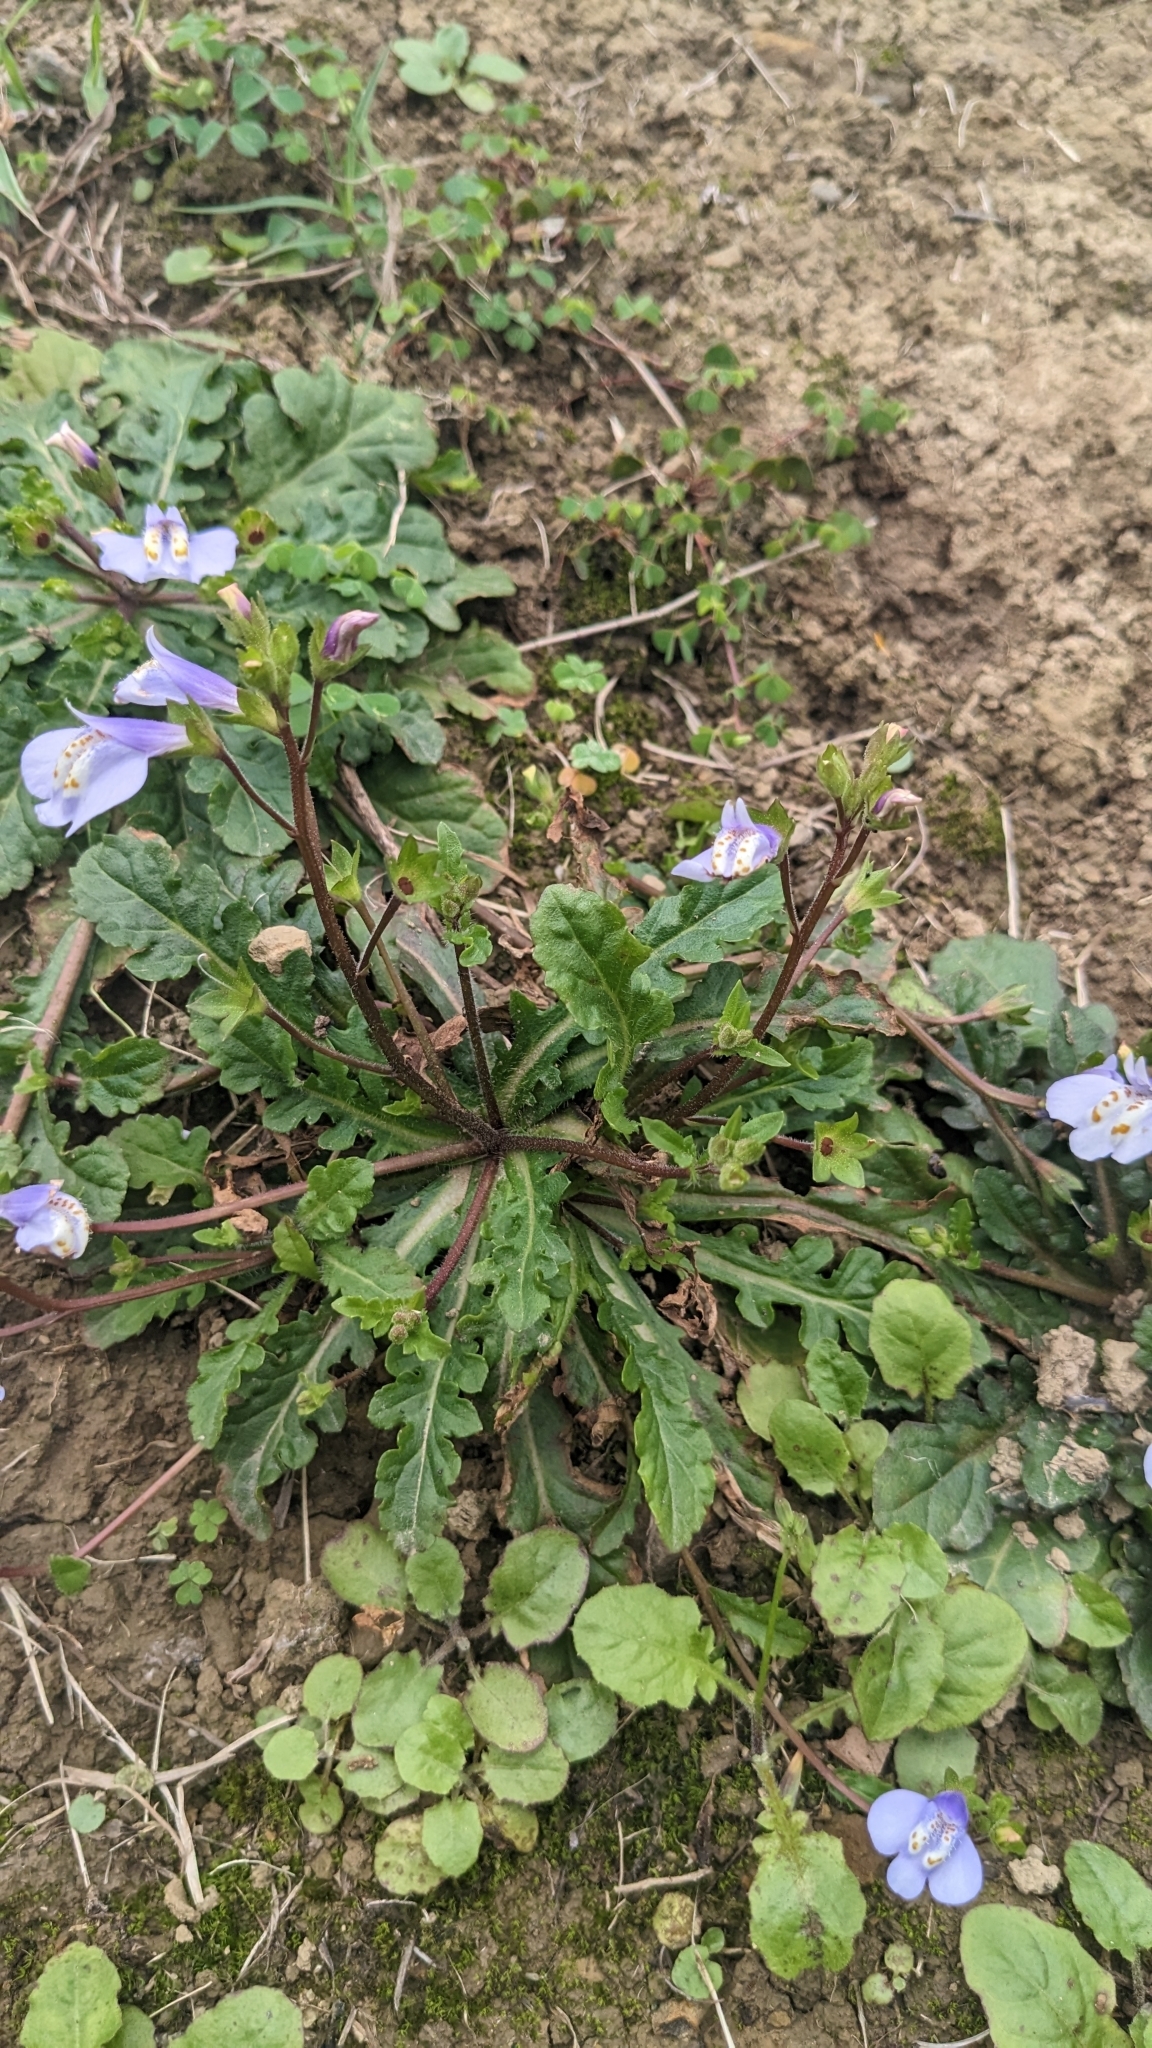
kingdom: Plantae
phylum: Tracheophyta
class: Magnoliopsida
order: Lamiales
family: Mazaceae
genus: Mazus
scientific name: Mazus fauriei
